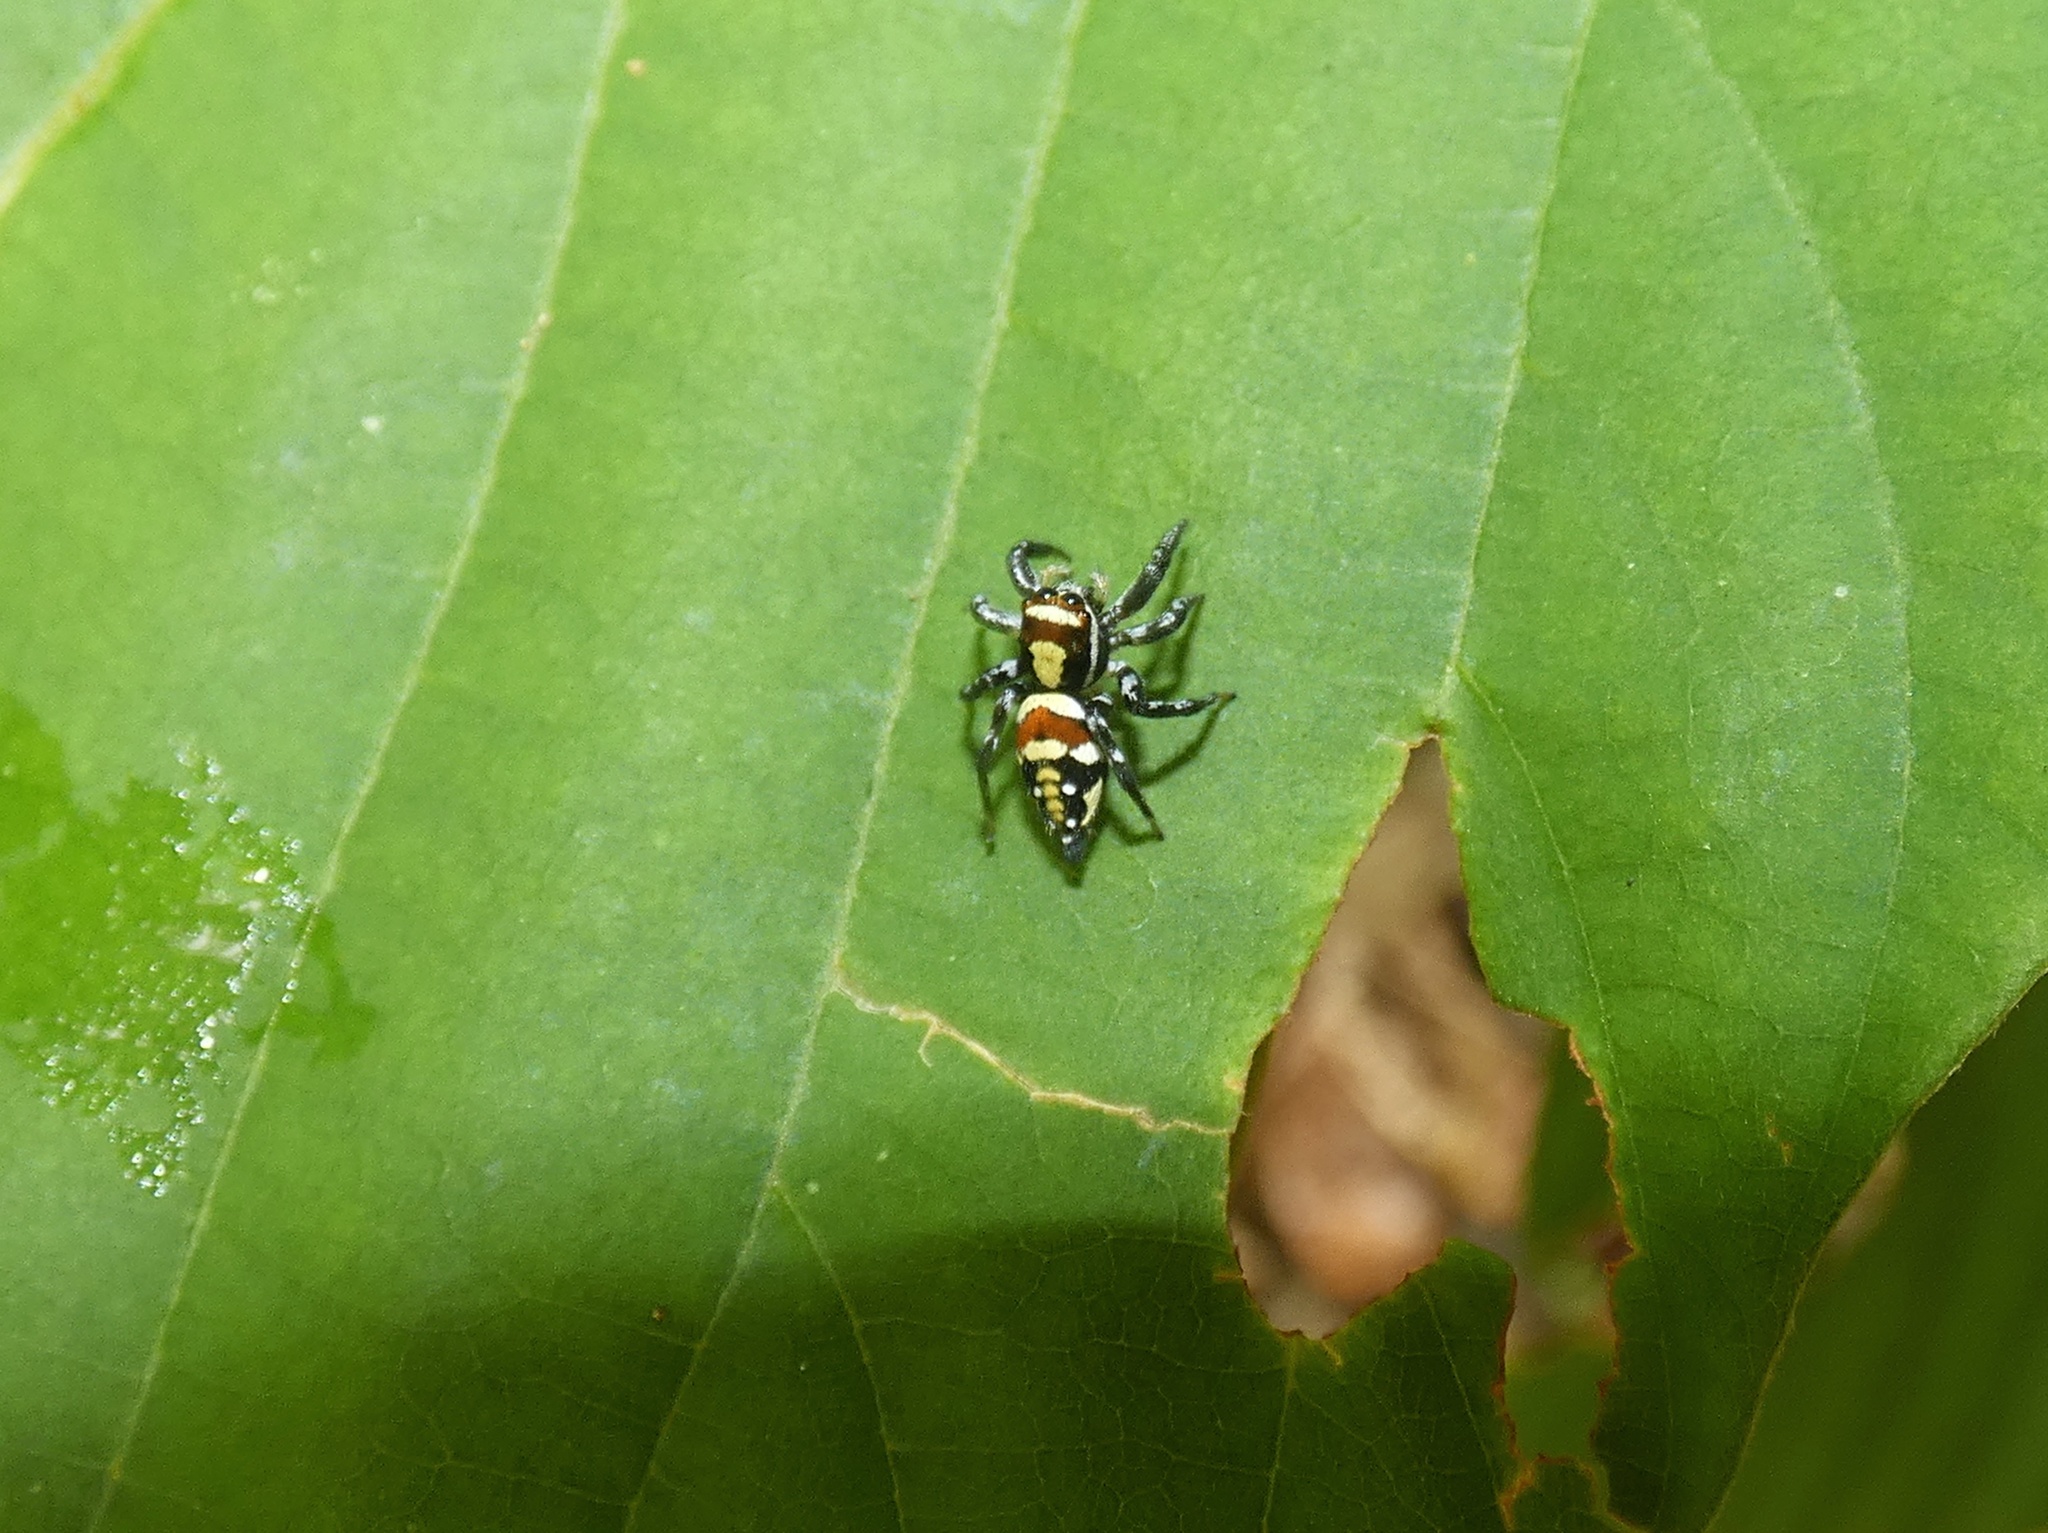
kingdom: Animalia
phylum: Arthropoda
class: Arachnida
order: Araneae
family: Salticidae
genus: Nycerella
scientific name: Nycerella donaldi
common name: Jumping spiders
